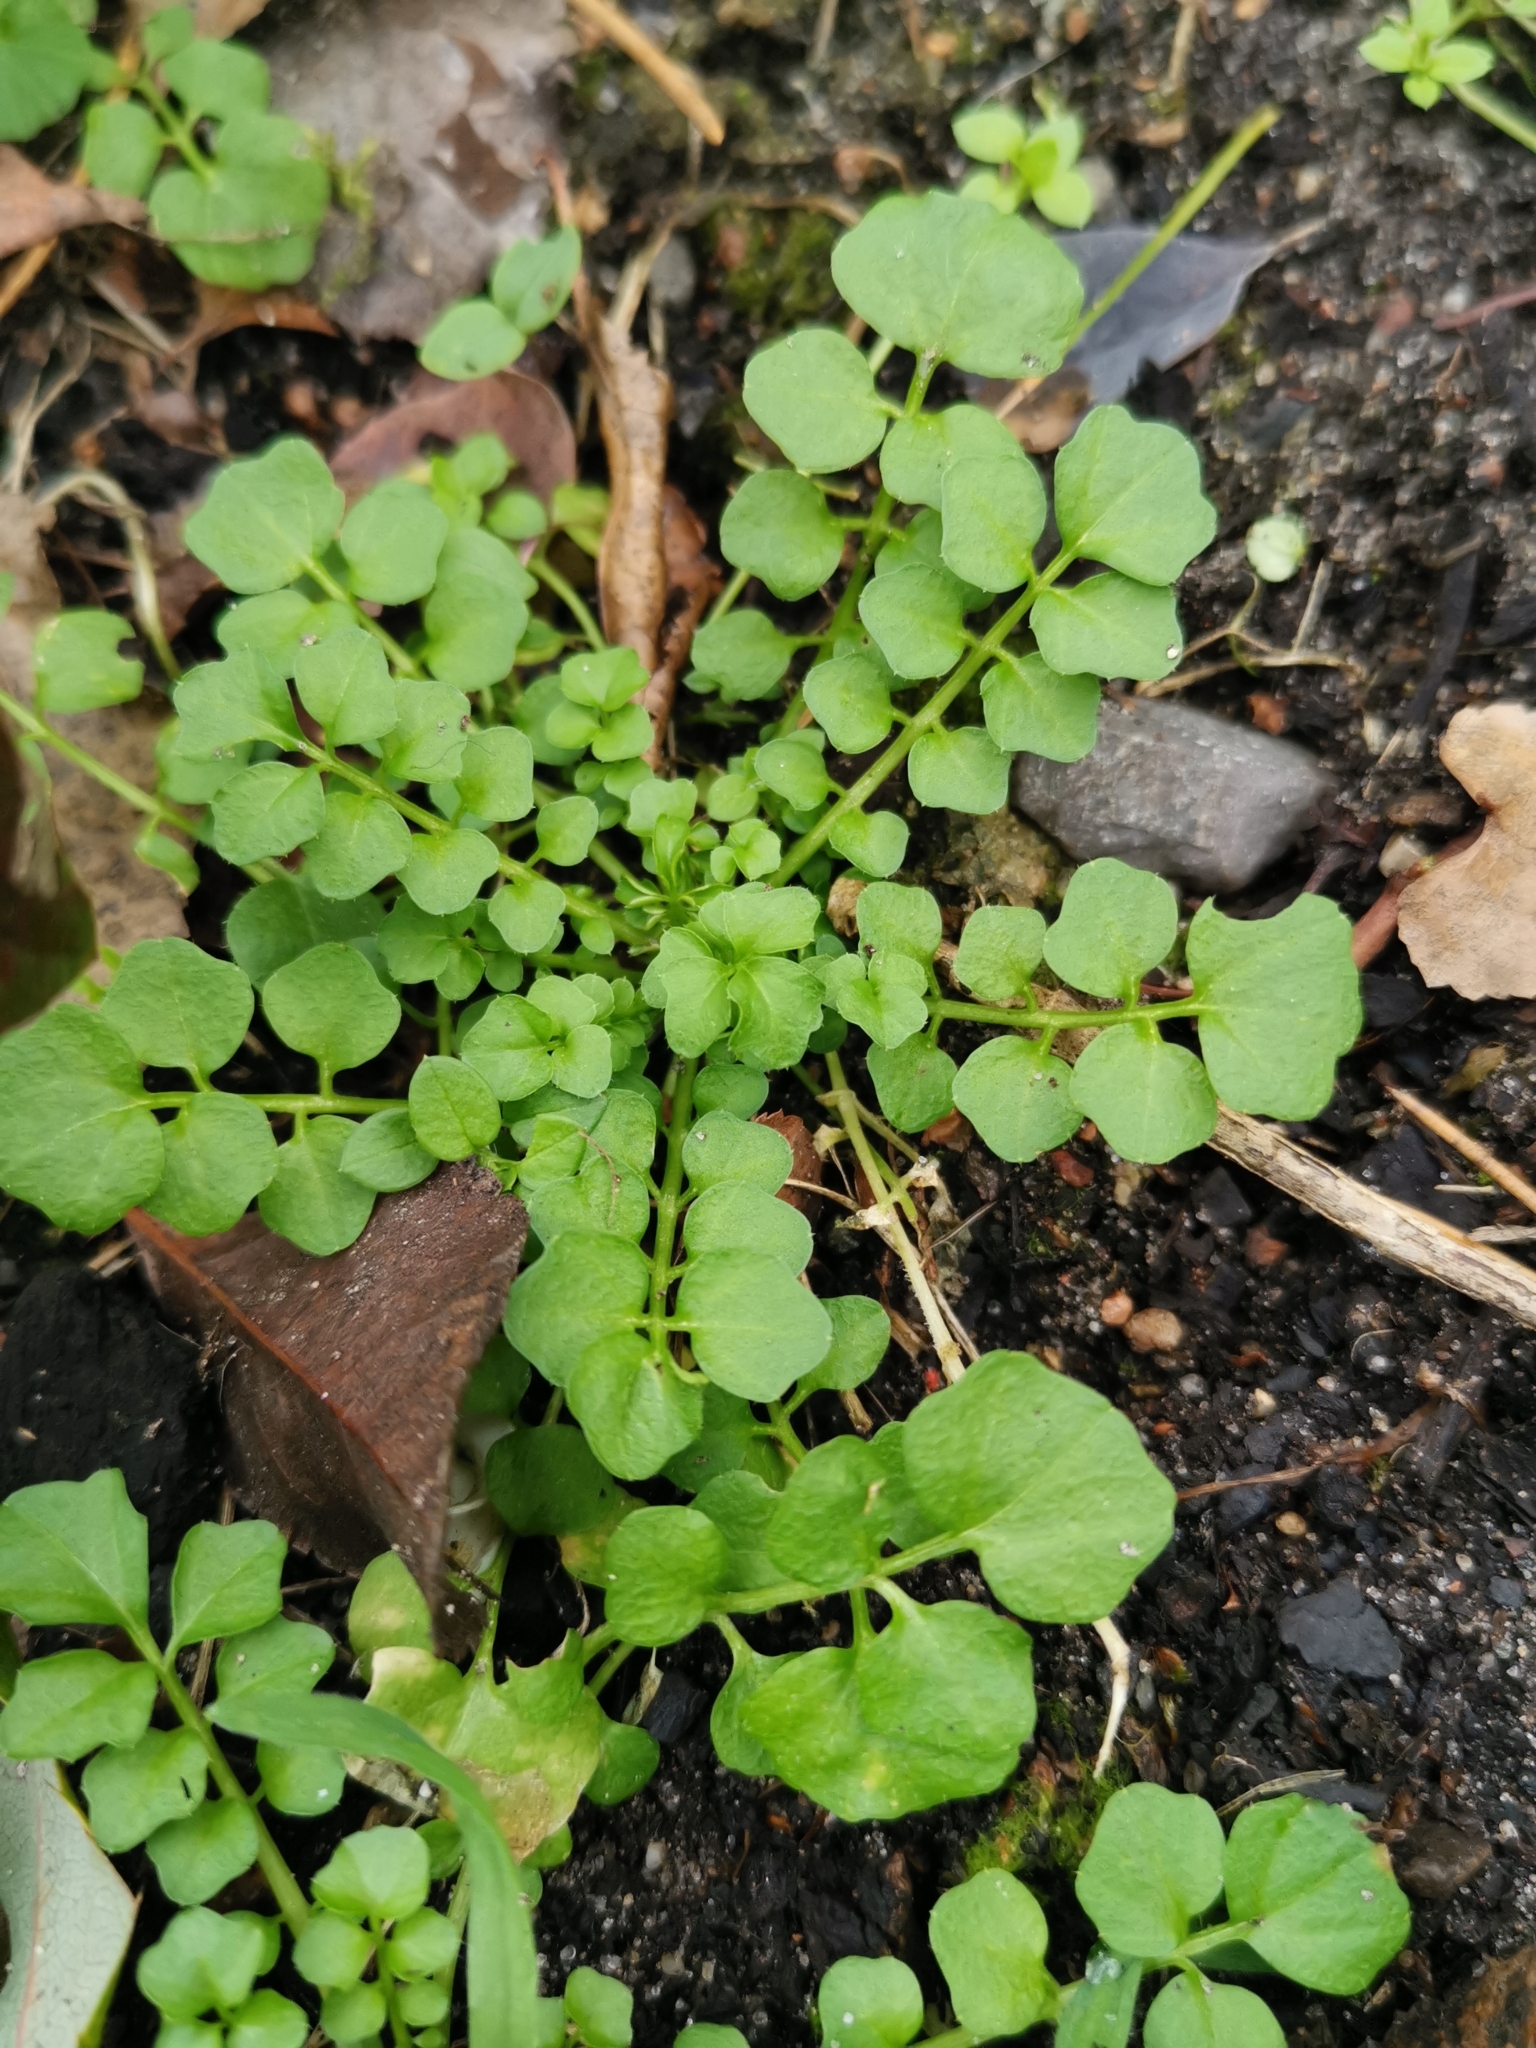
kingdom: Plantae
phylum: Tracheophyta
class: Magnoliopsida
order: Brassicales
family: Brassicaceae
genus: Cardamine
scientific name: Cardamine hirsuta
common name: Hairy bittercress
